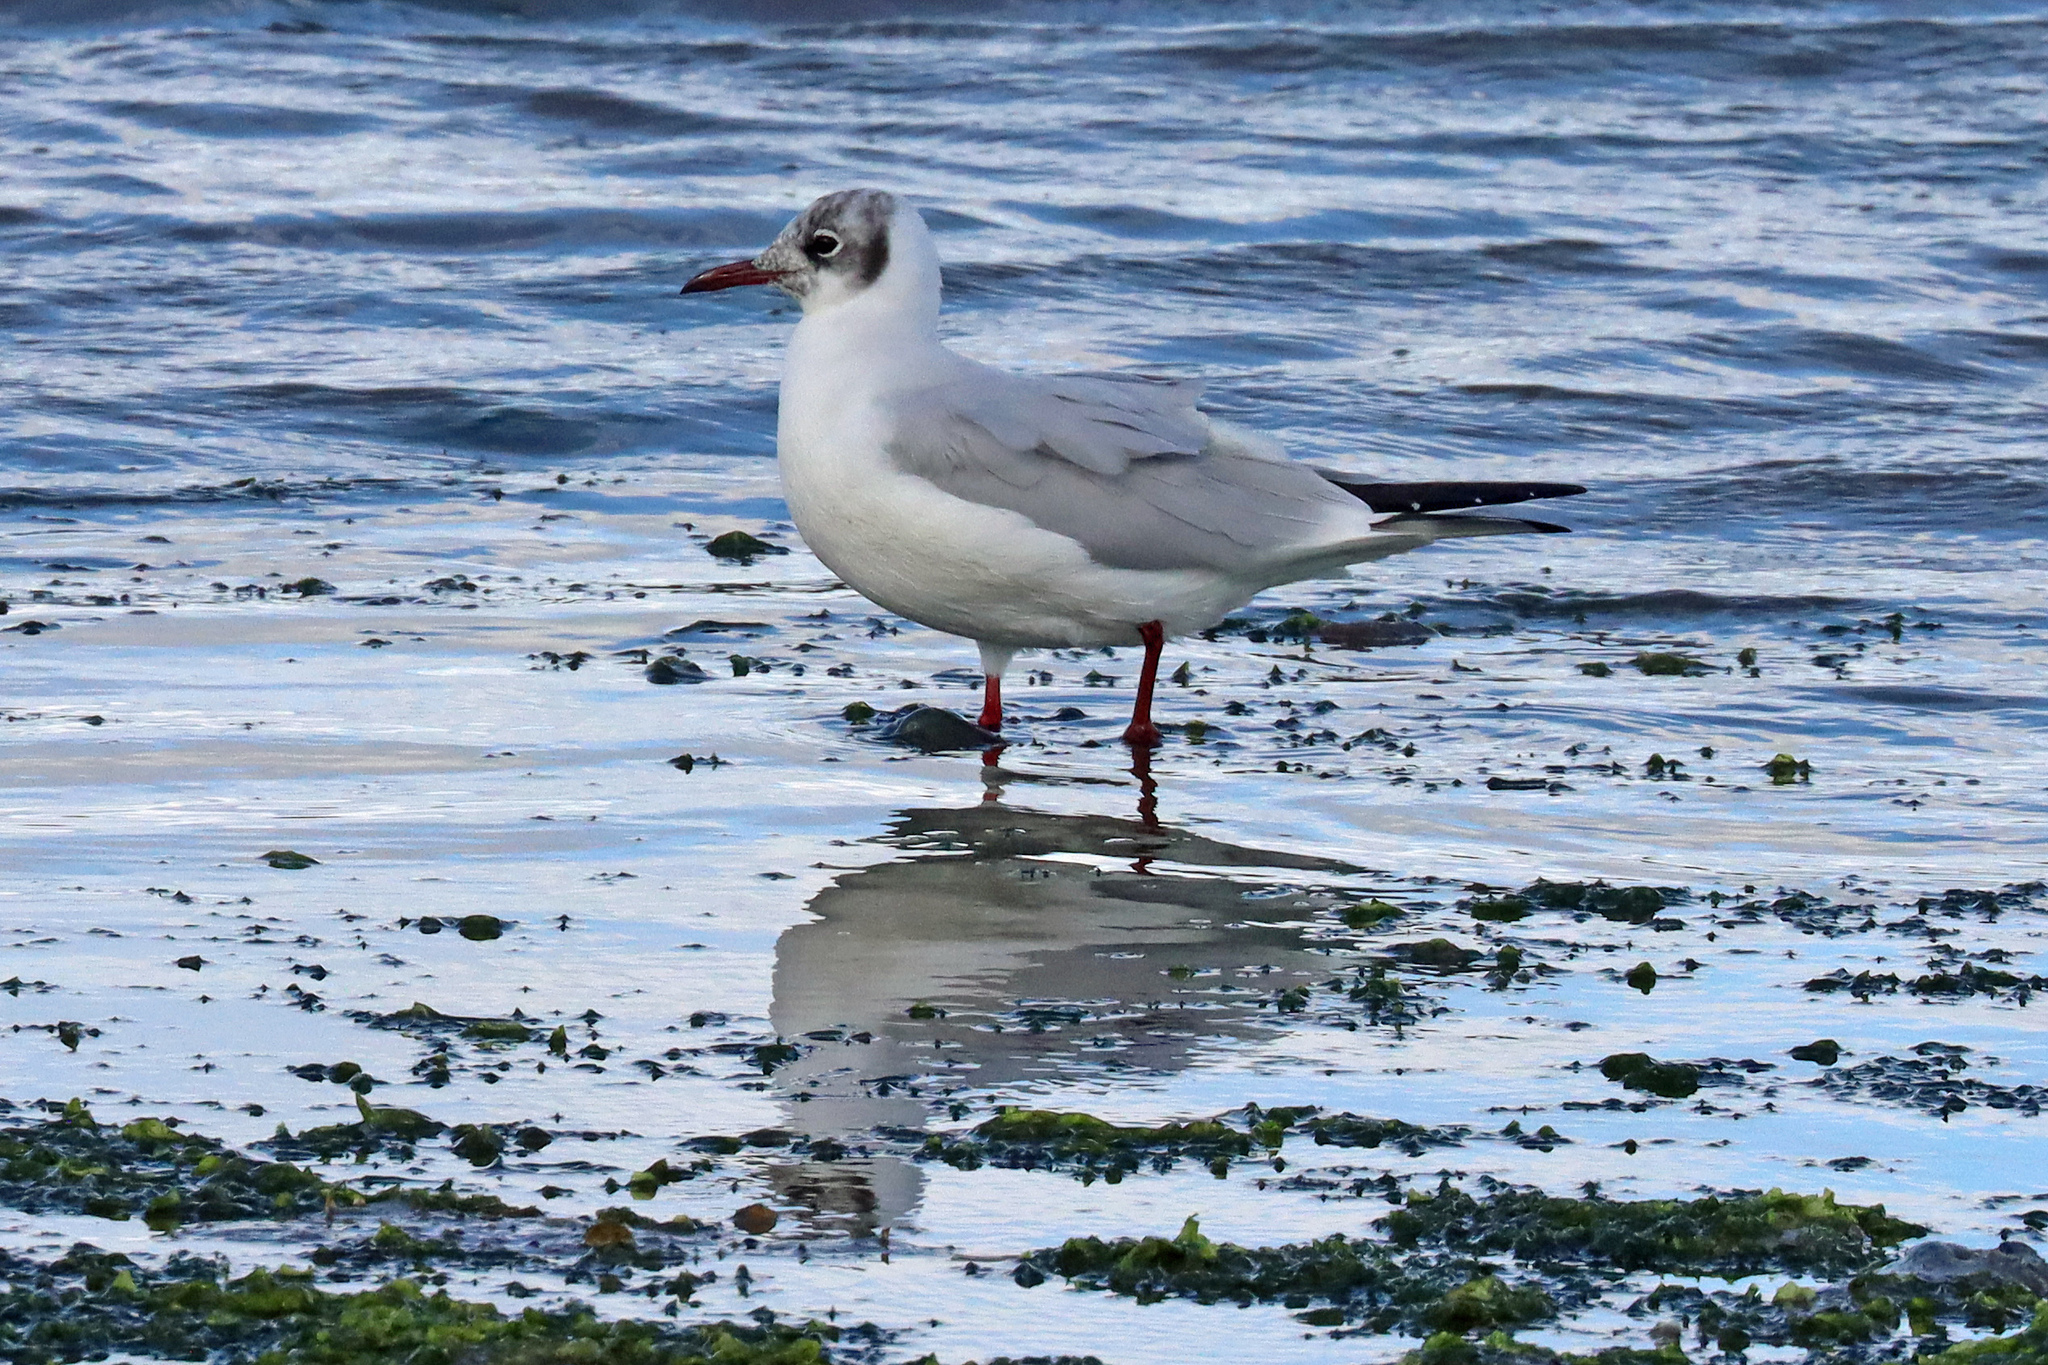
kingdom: Animalia
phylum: Chordata
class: Aves
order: Charadriiformes
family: Laridae
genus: Chroicocephalus
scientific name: Chroicocephalus ridibundus
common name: Black-headed gull
